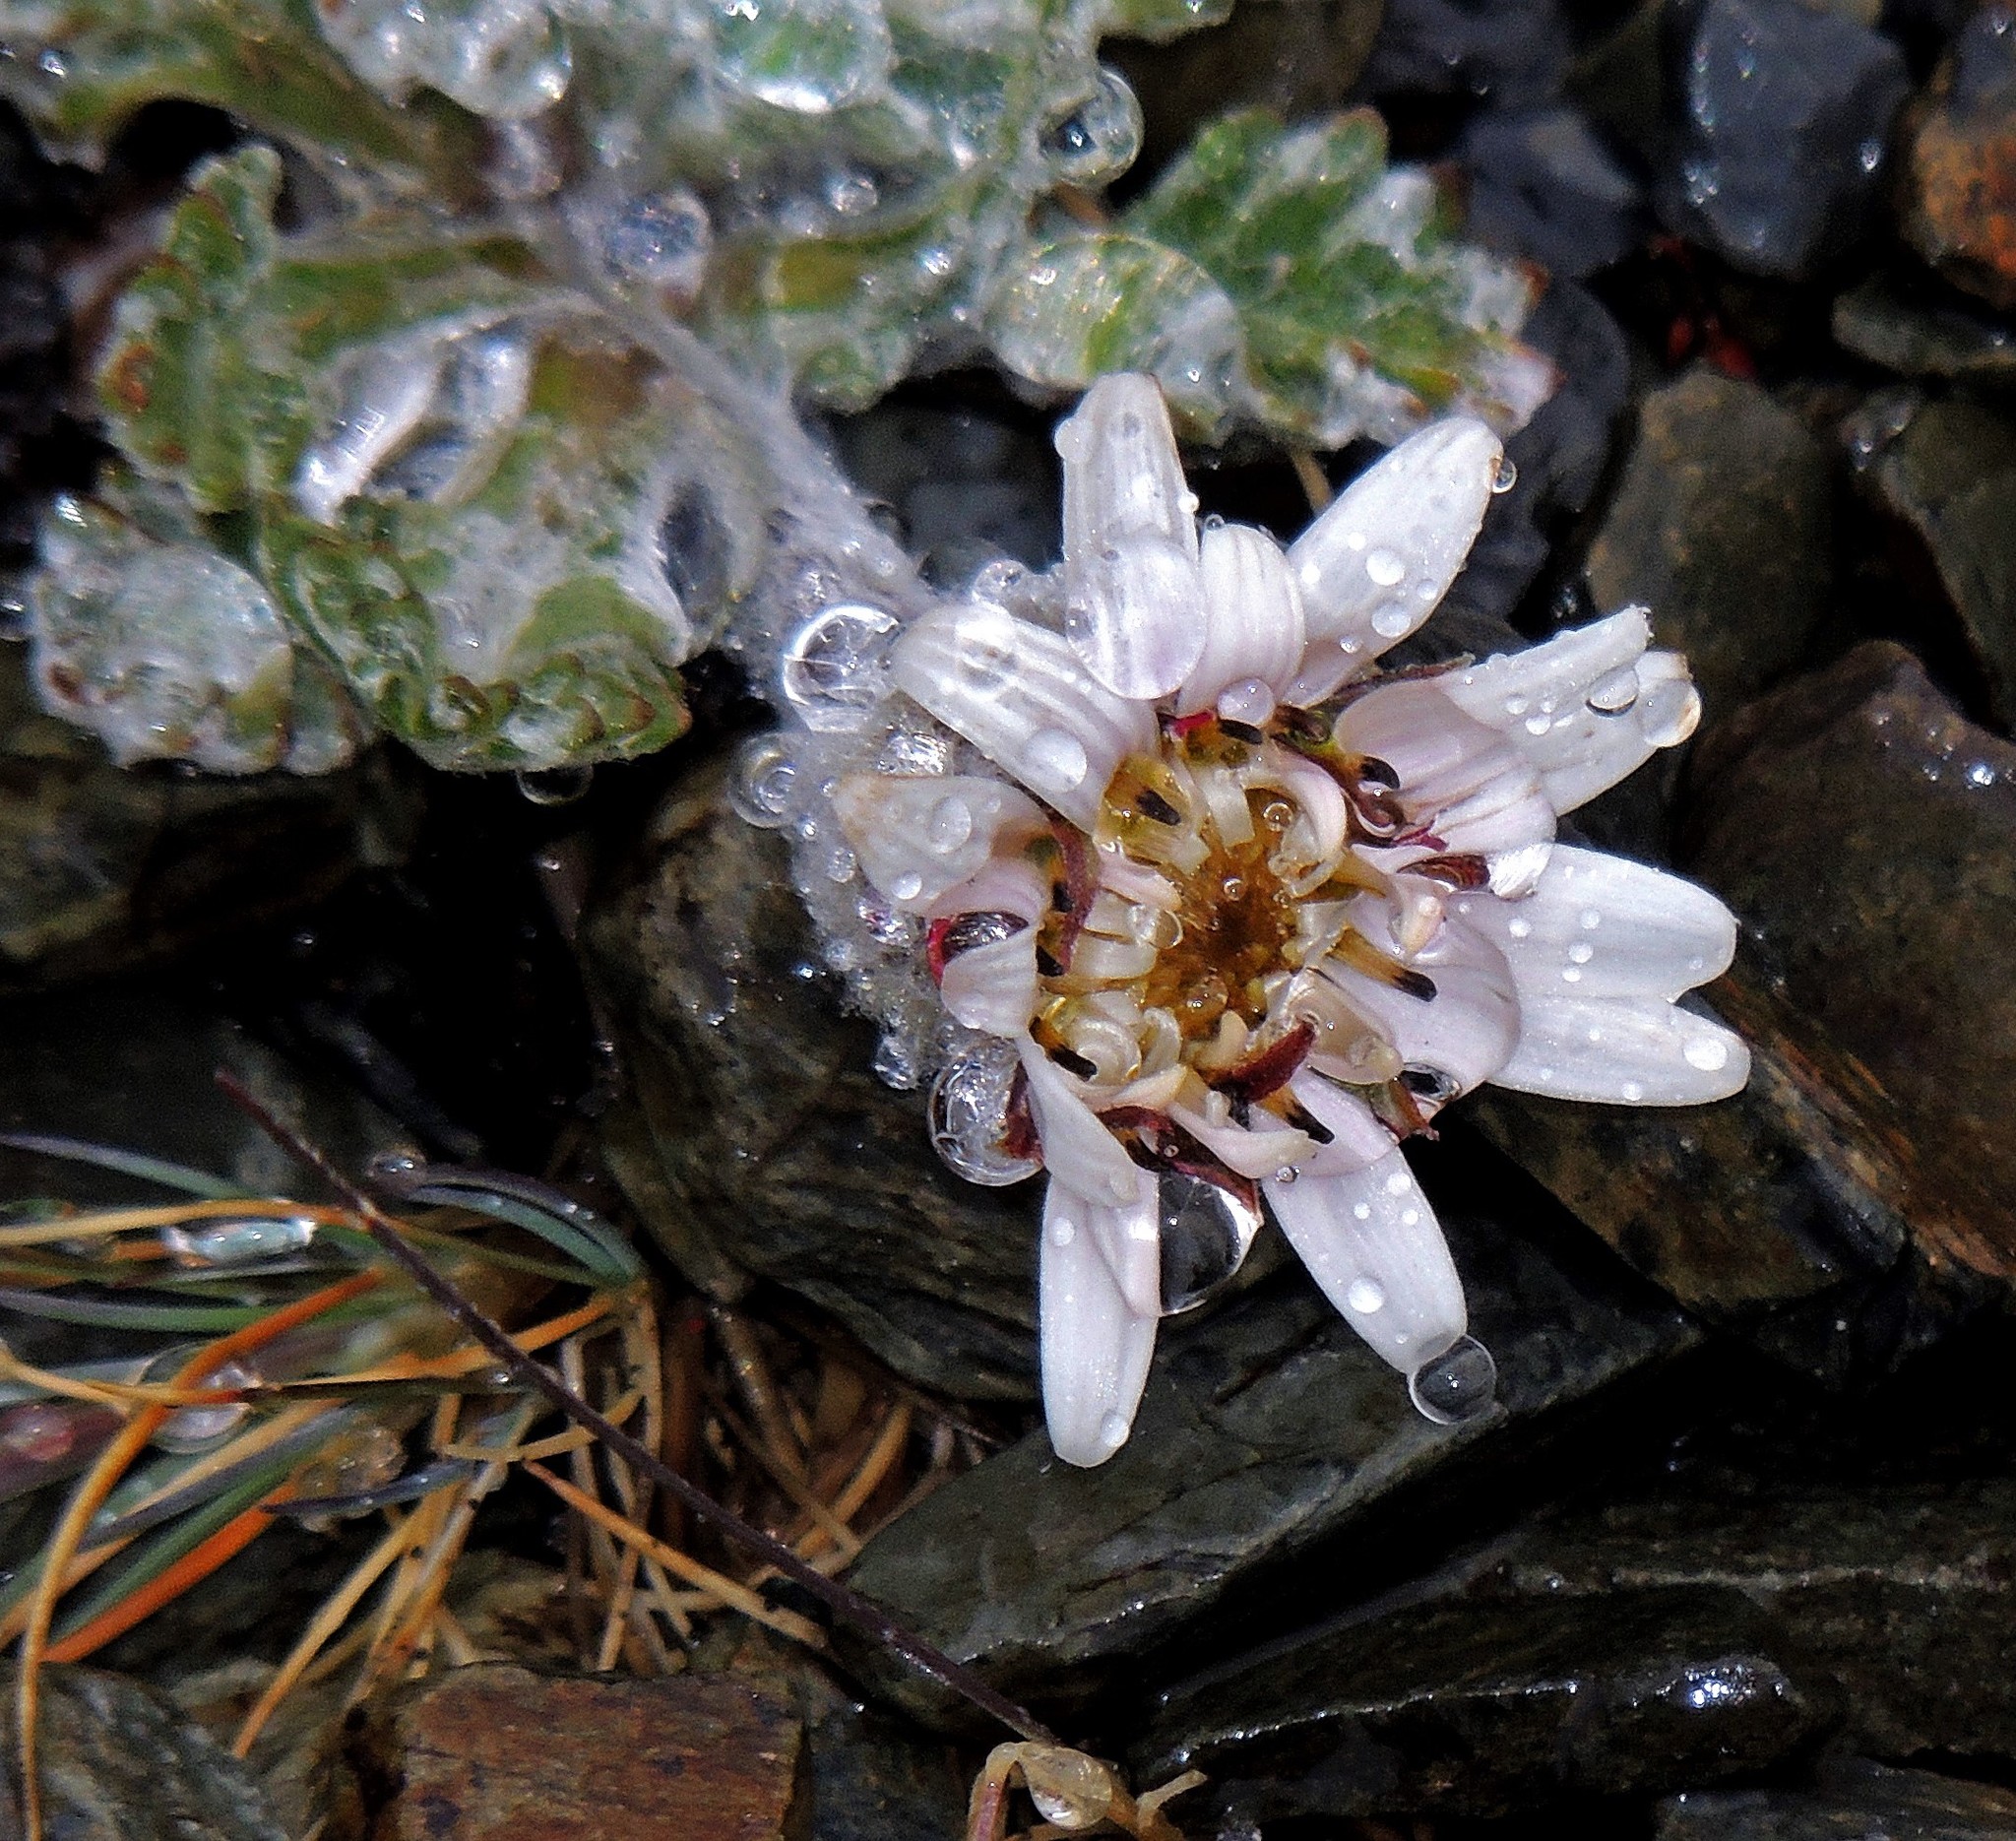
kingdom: Plantae
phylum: Tracheophyta
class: Magnoliopsida
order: Asterales
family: Asteraceae
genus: Leucheria
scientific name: Leucheria hahnii
